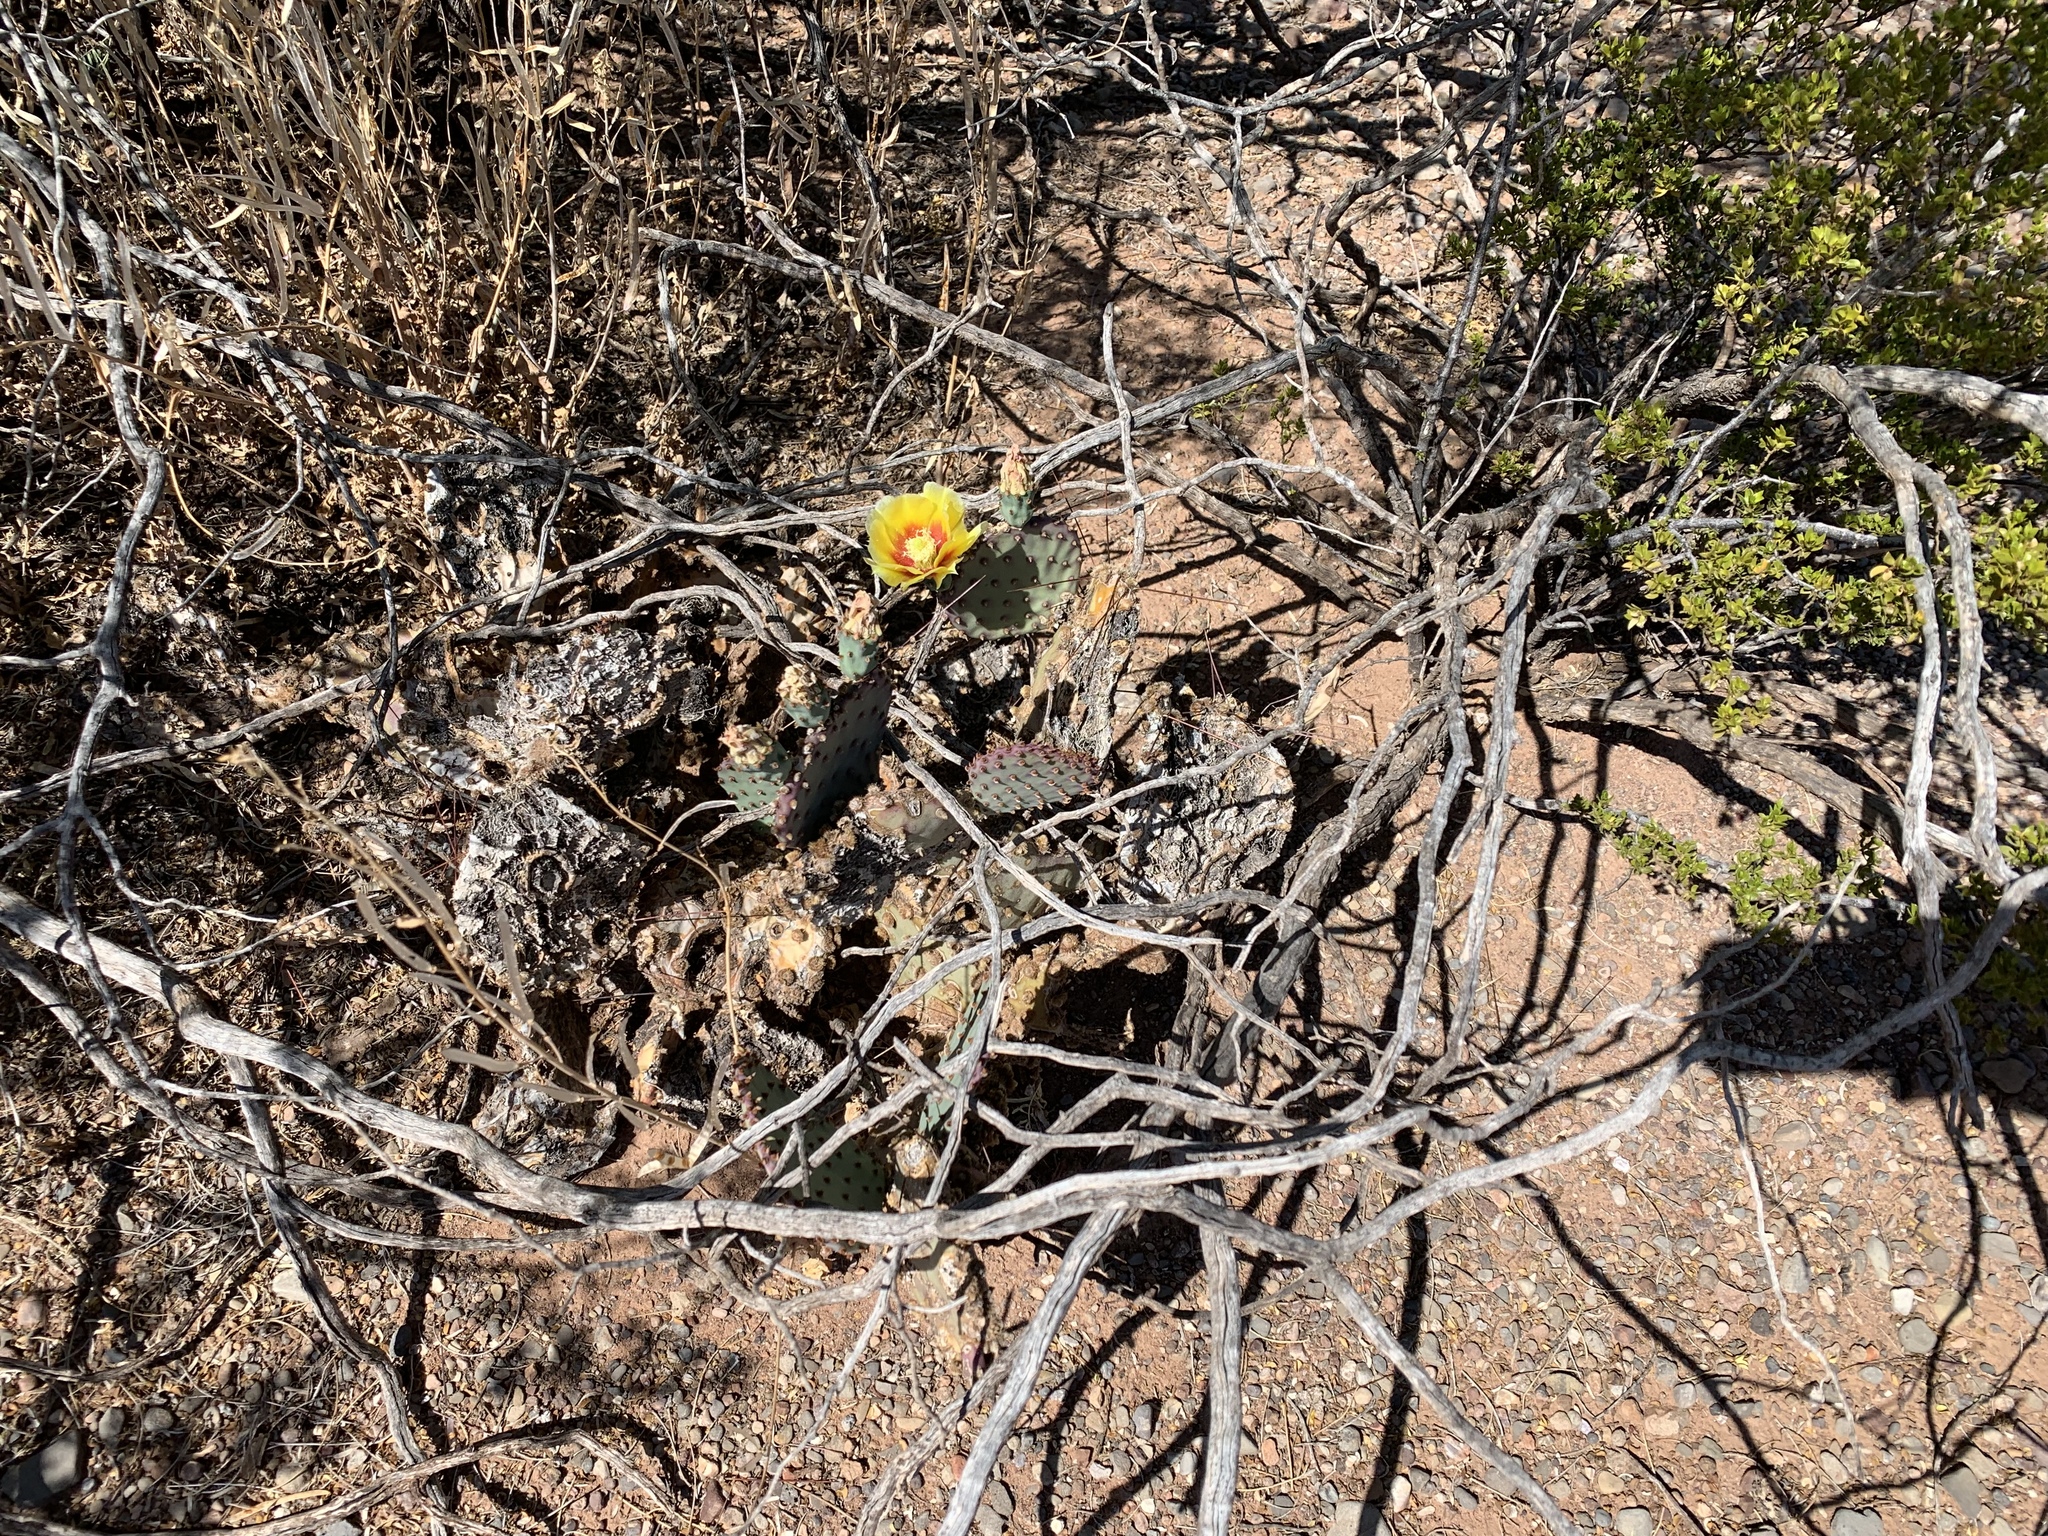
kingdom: Plantae
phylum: Tracheophyta
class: Magnoliopsida
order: Caryophyllales
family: Cactaceae
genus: Opuntia
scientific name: Opuntia macrocentra
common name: Purple prickly-pear
